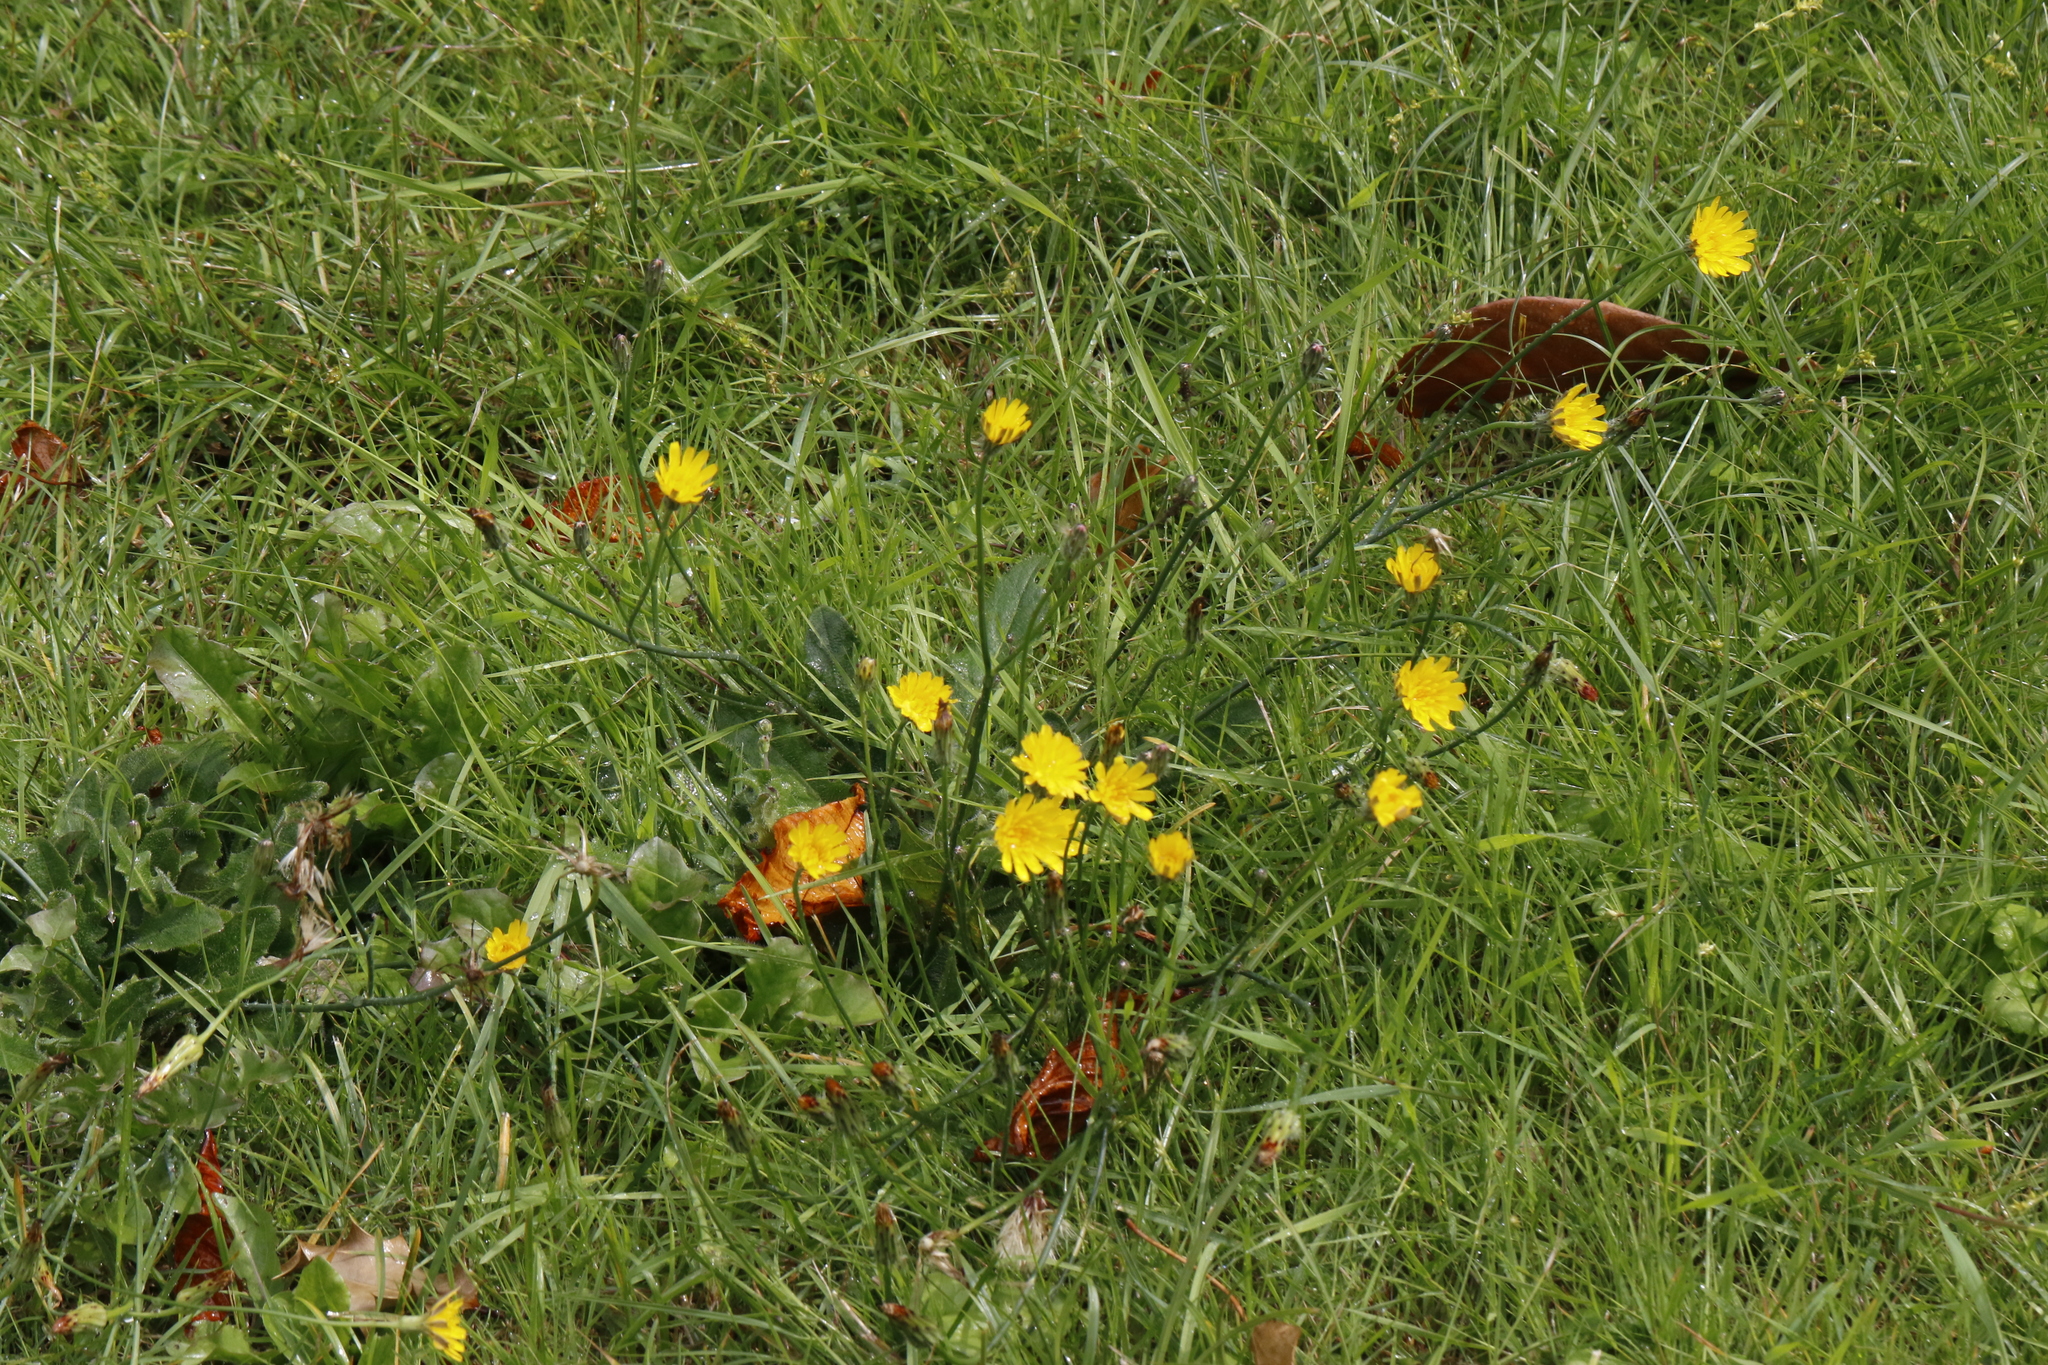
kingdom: Plantae
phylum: Tracheophyta
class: Magnoliopsida
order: Asterales
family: Asteraceae
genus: Hypochaeris
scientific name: Hypochaeris radicata
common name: Flatweed
